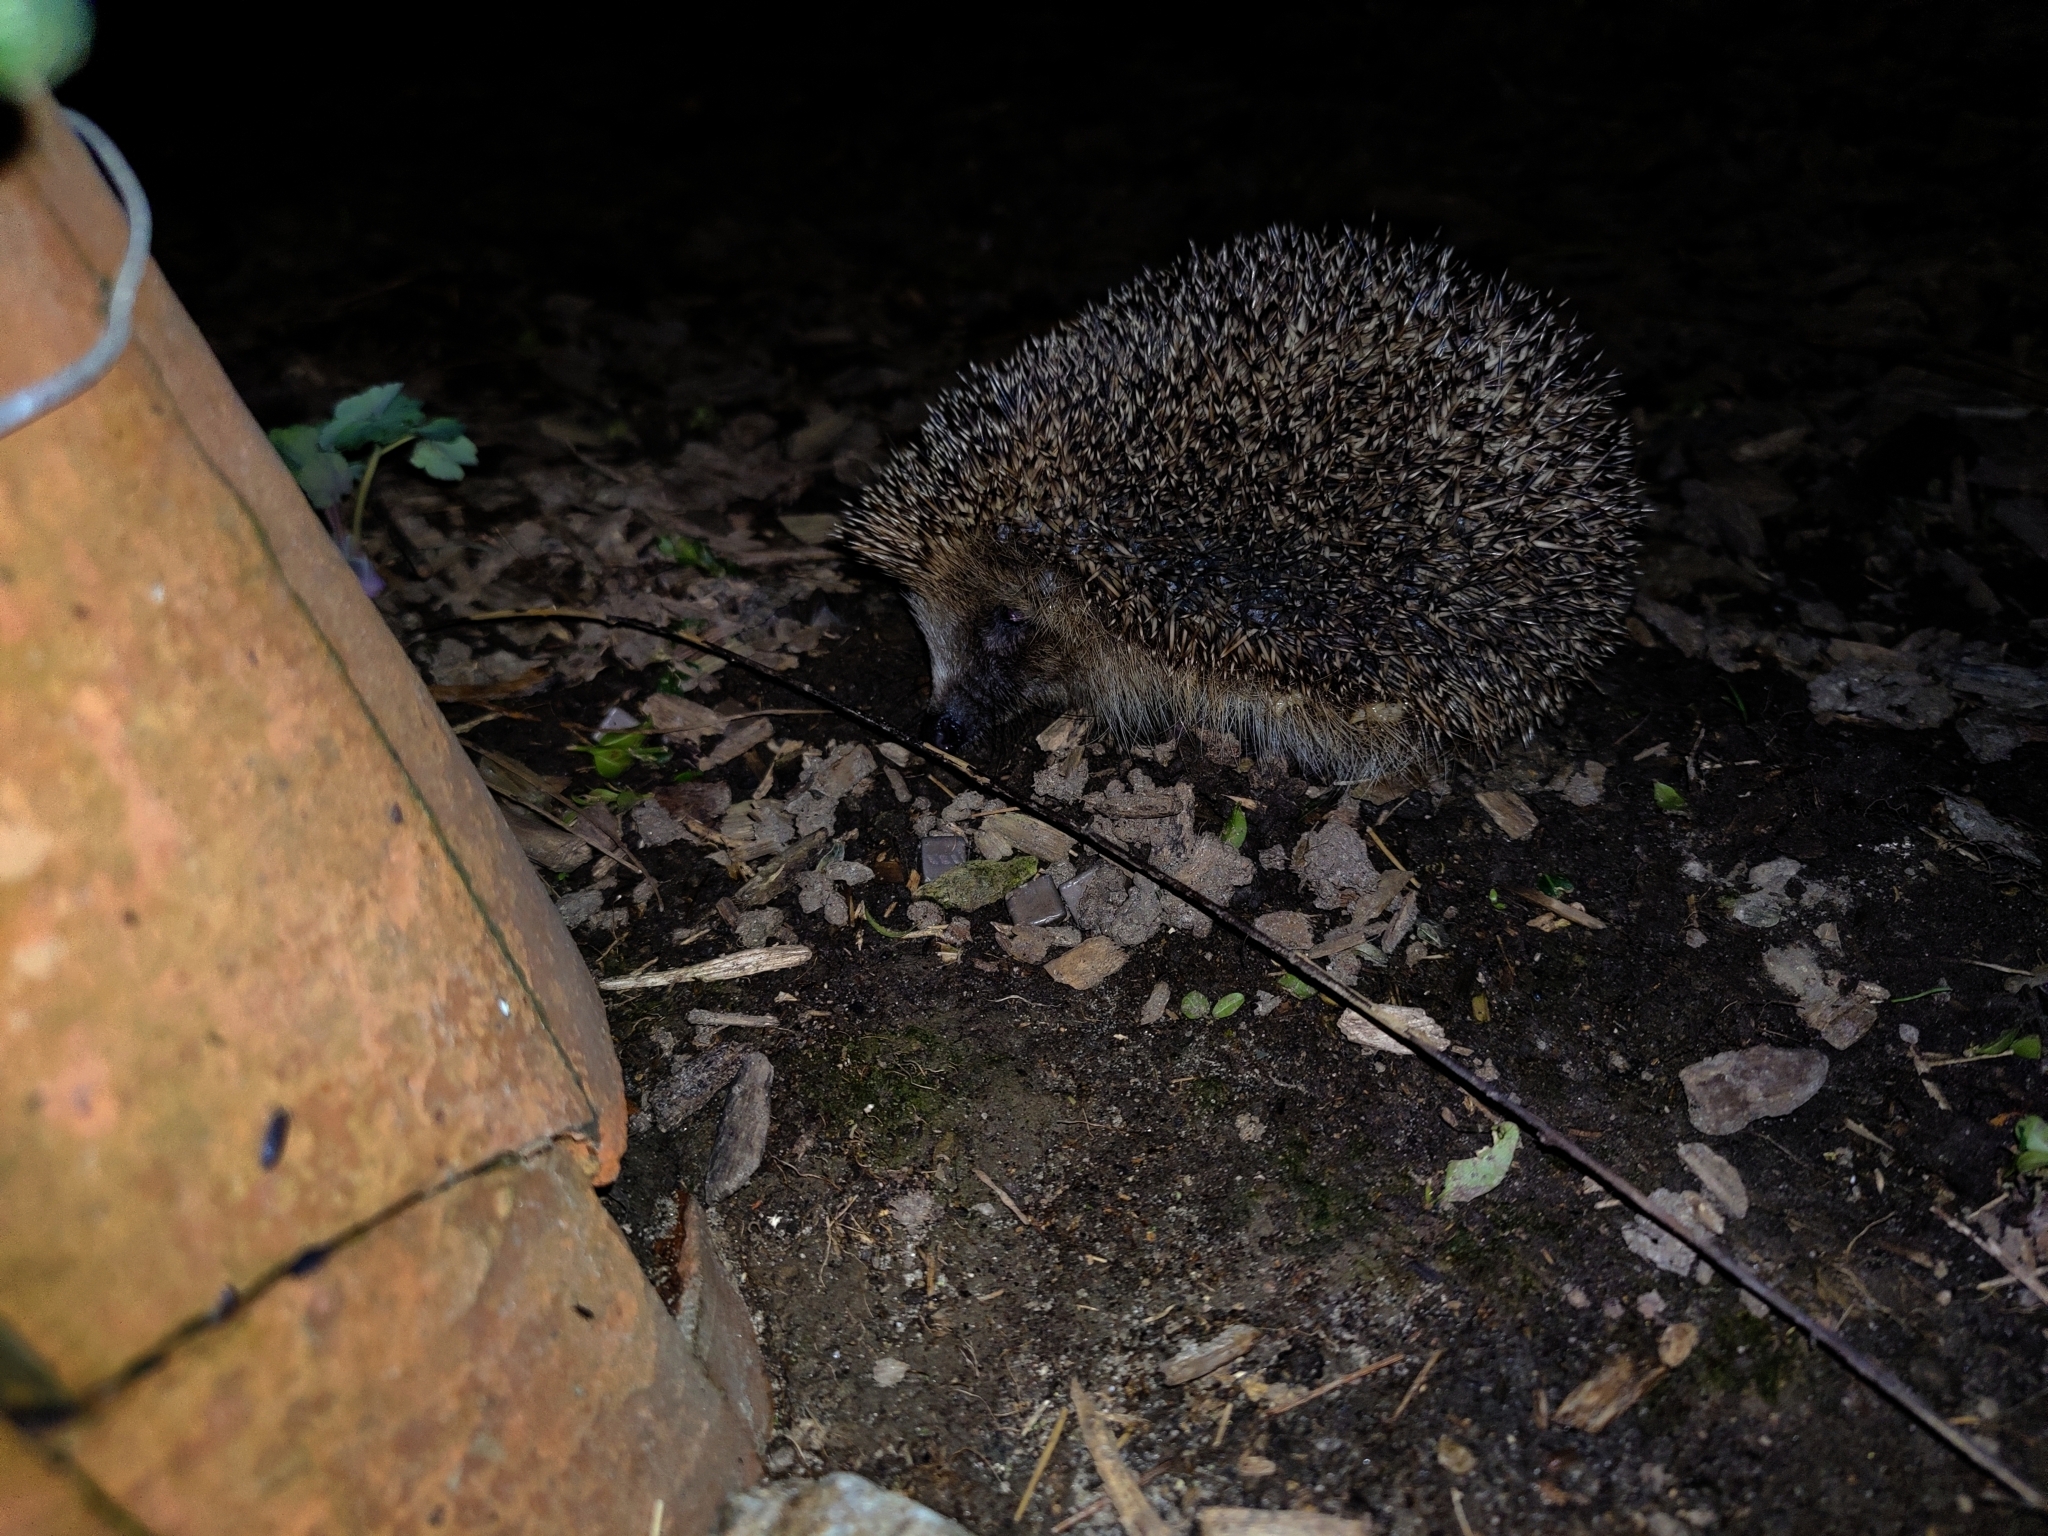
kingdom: Animalia
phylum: Chordata
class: Mammalia
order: Erinaceomorpha
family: Erinaceidae
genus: Erinaceus
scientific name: Erinaceus europaeus
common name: West european hedgehog
